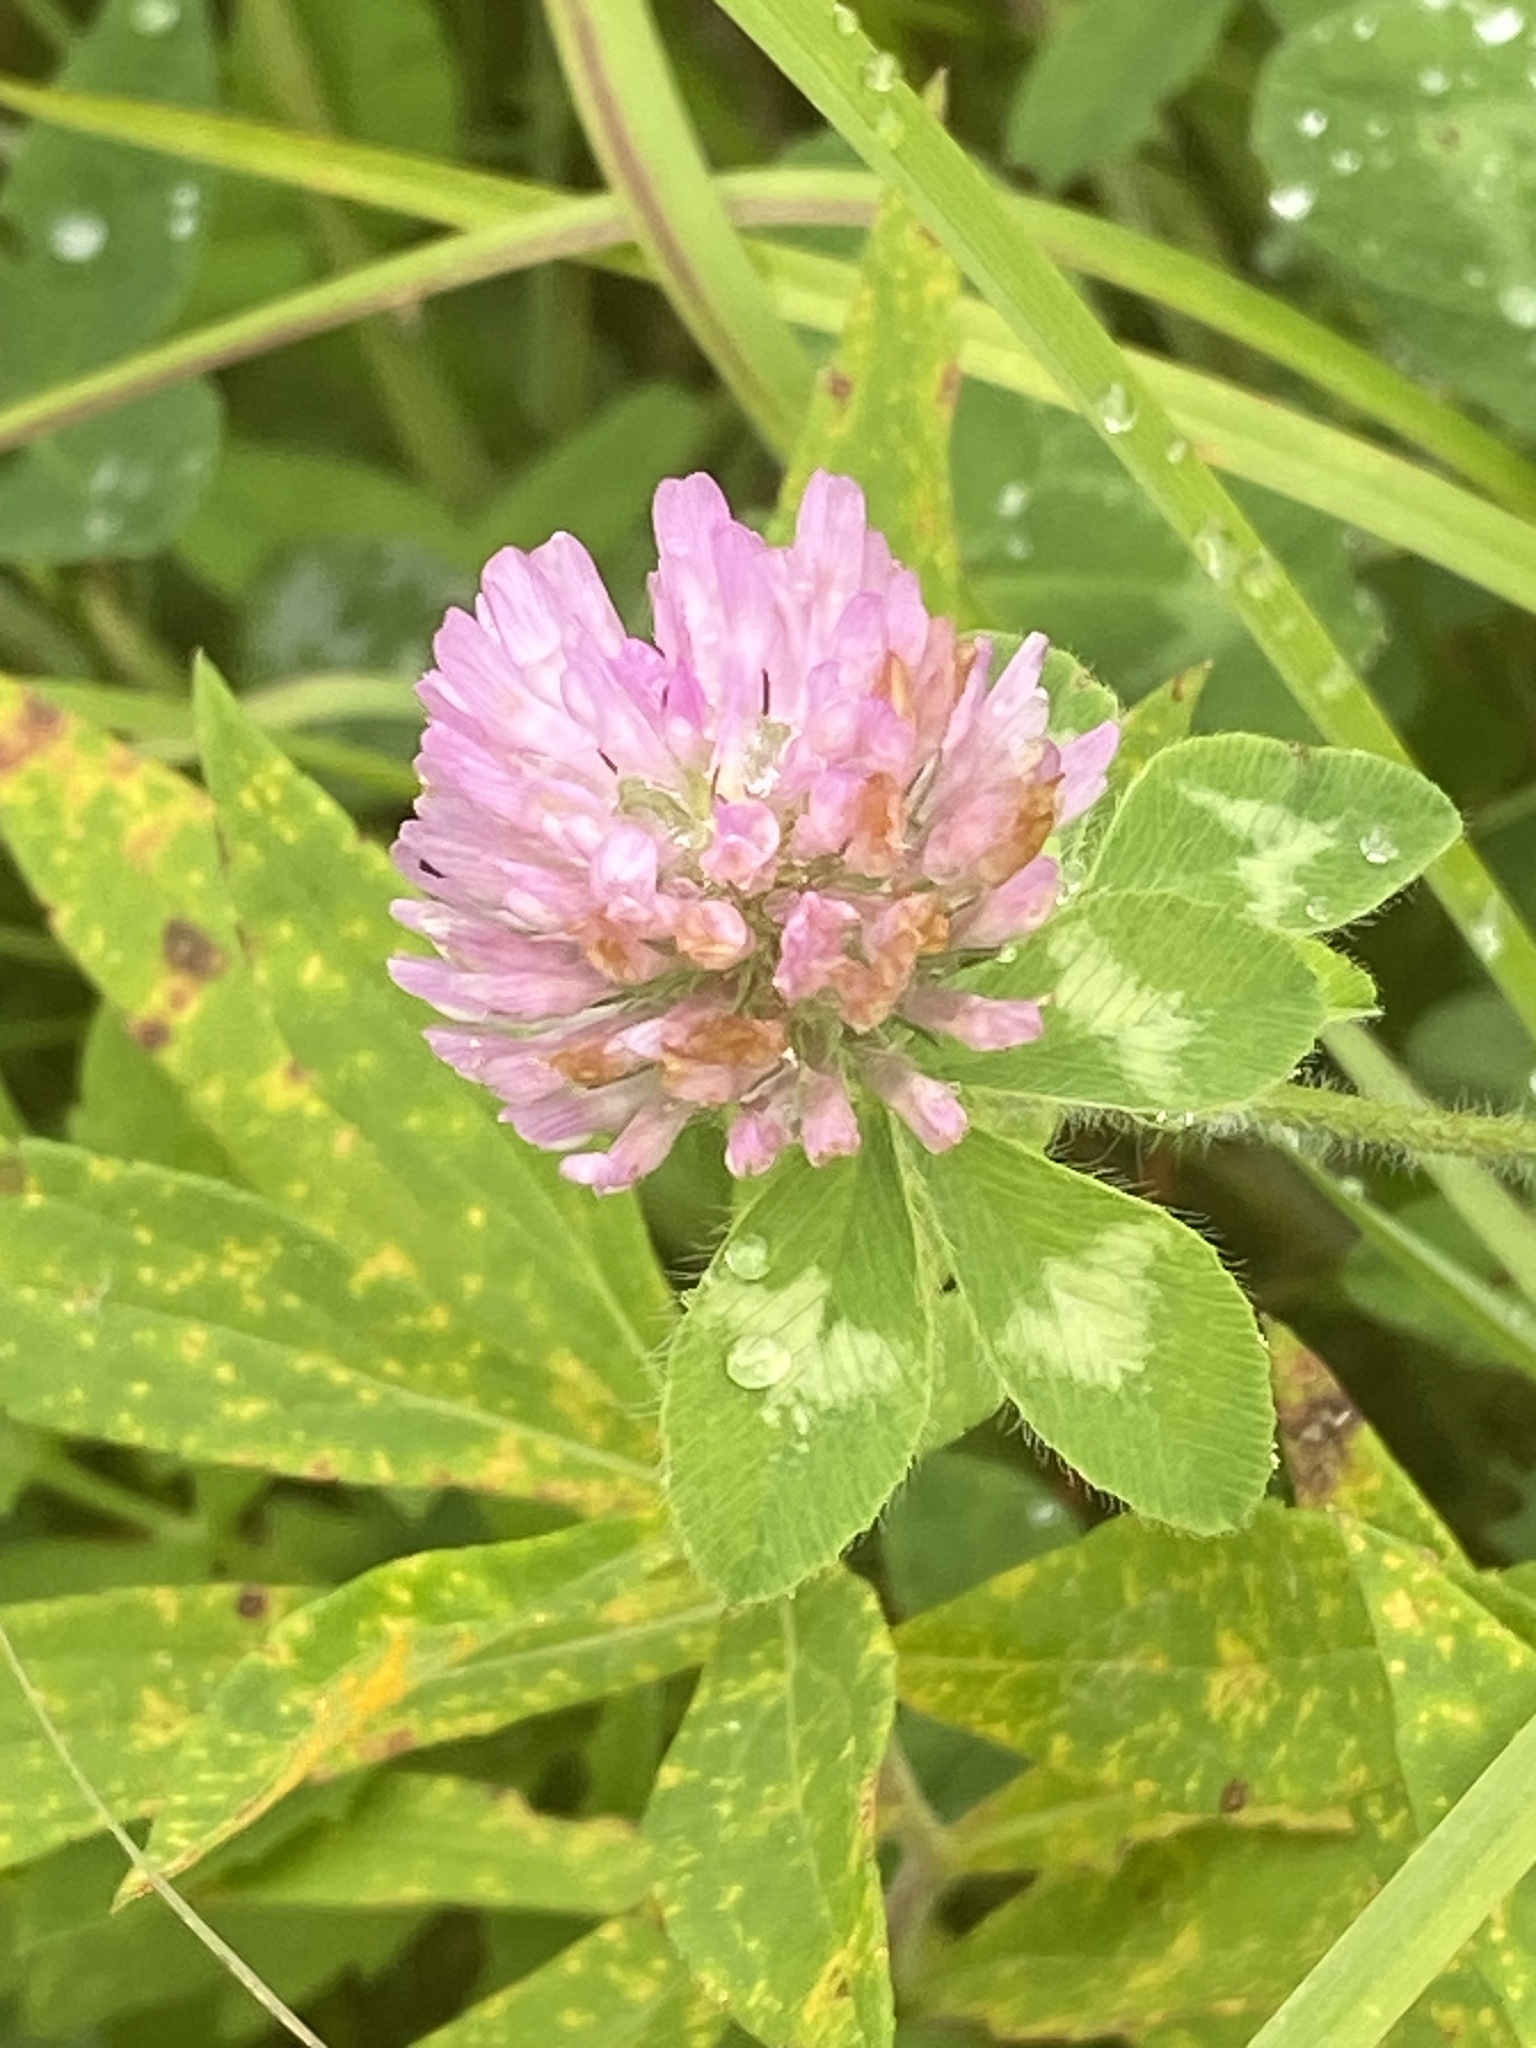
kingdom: Plantae
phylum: Tracheophyta
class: Magnoliopsida
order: Fabales
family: Fabaceae
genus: Trifolium
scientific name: Trifolium pratense
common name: Red clover
